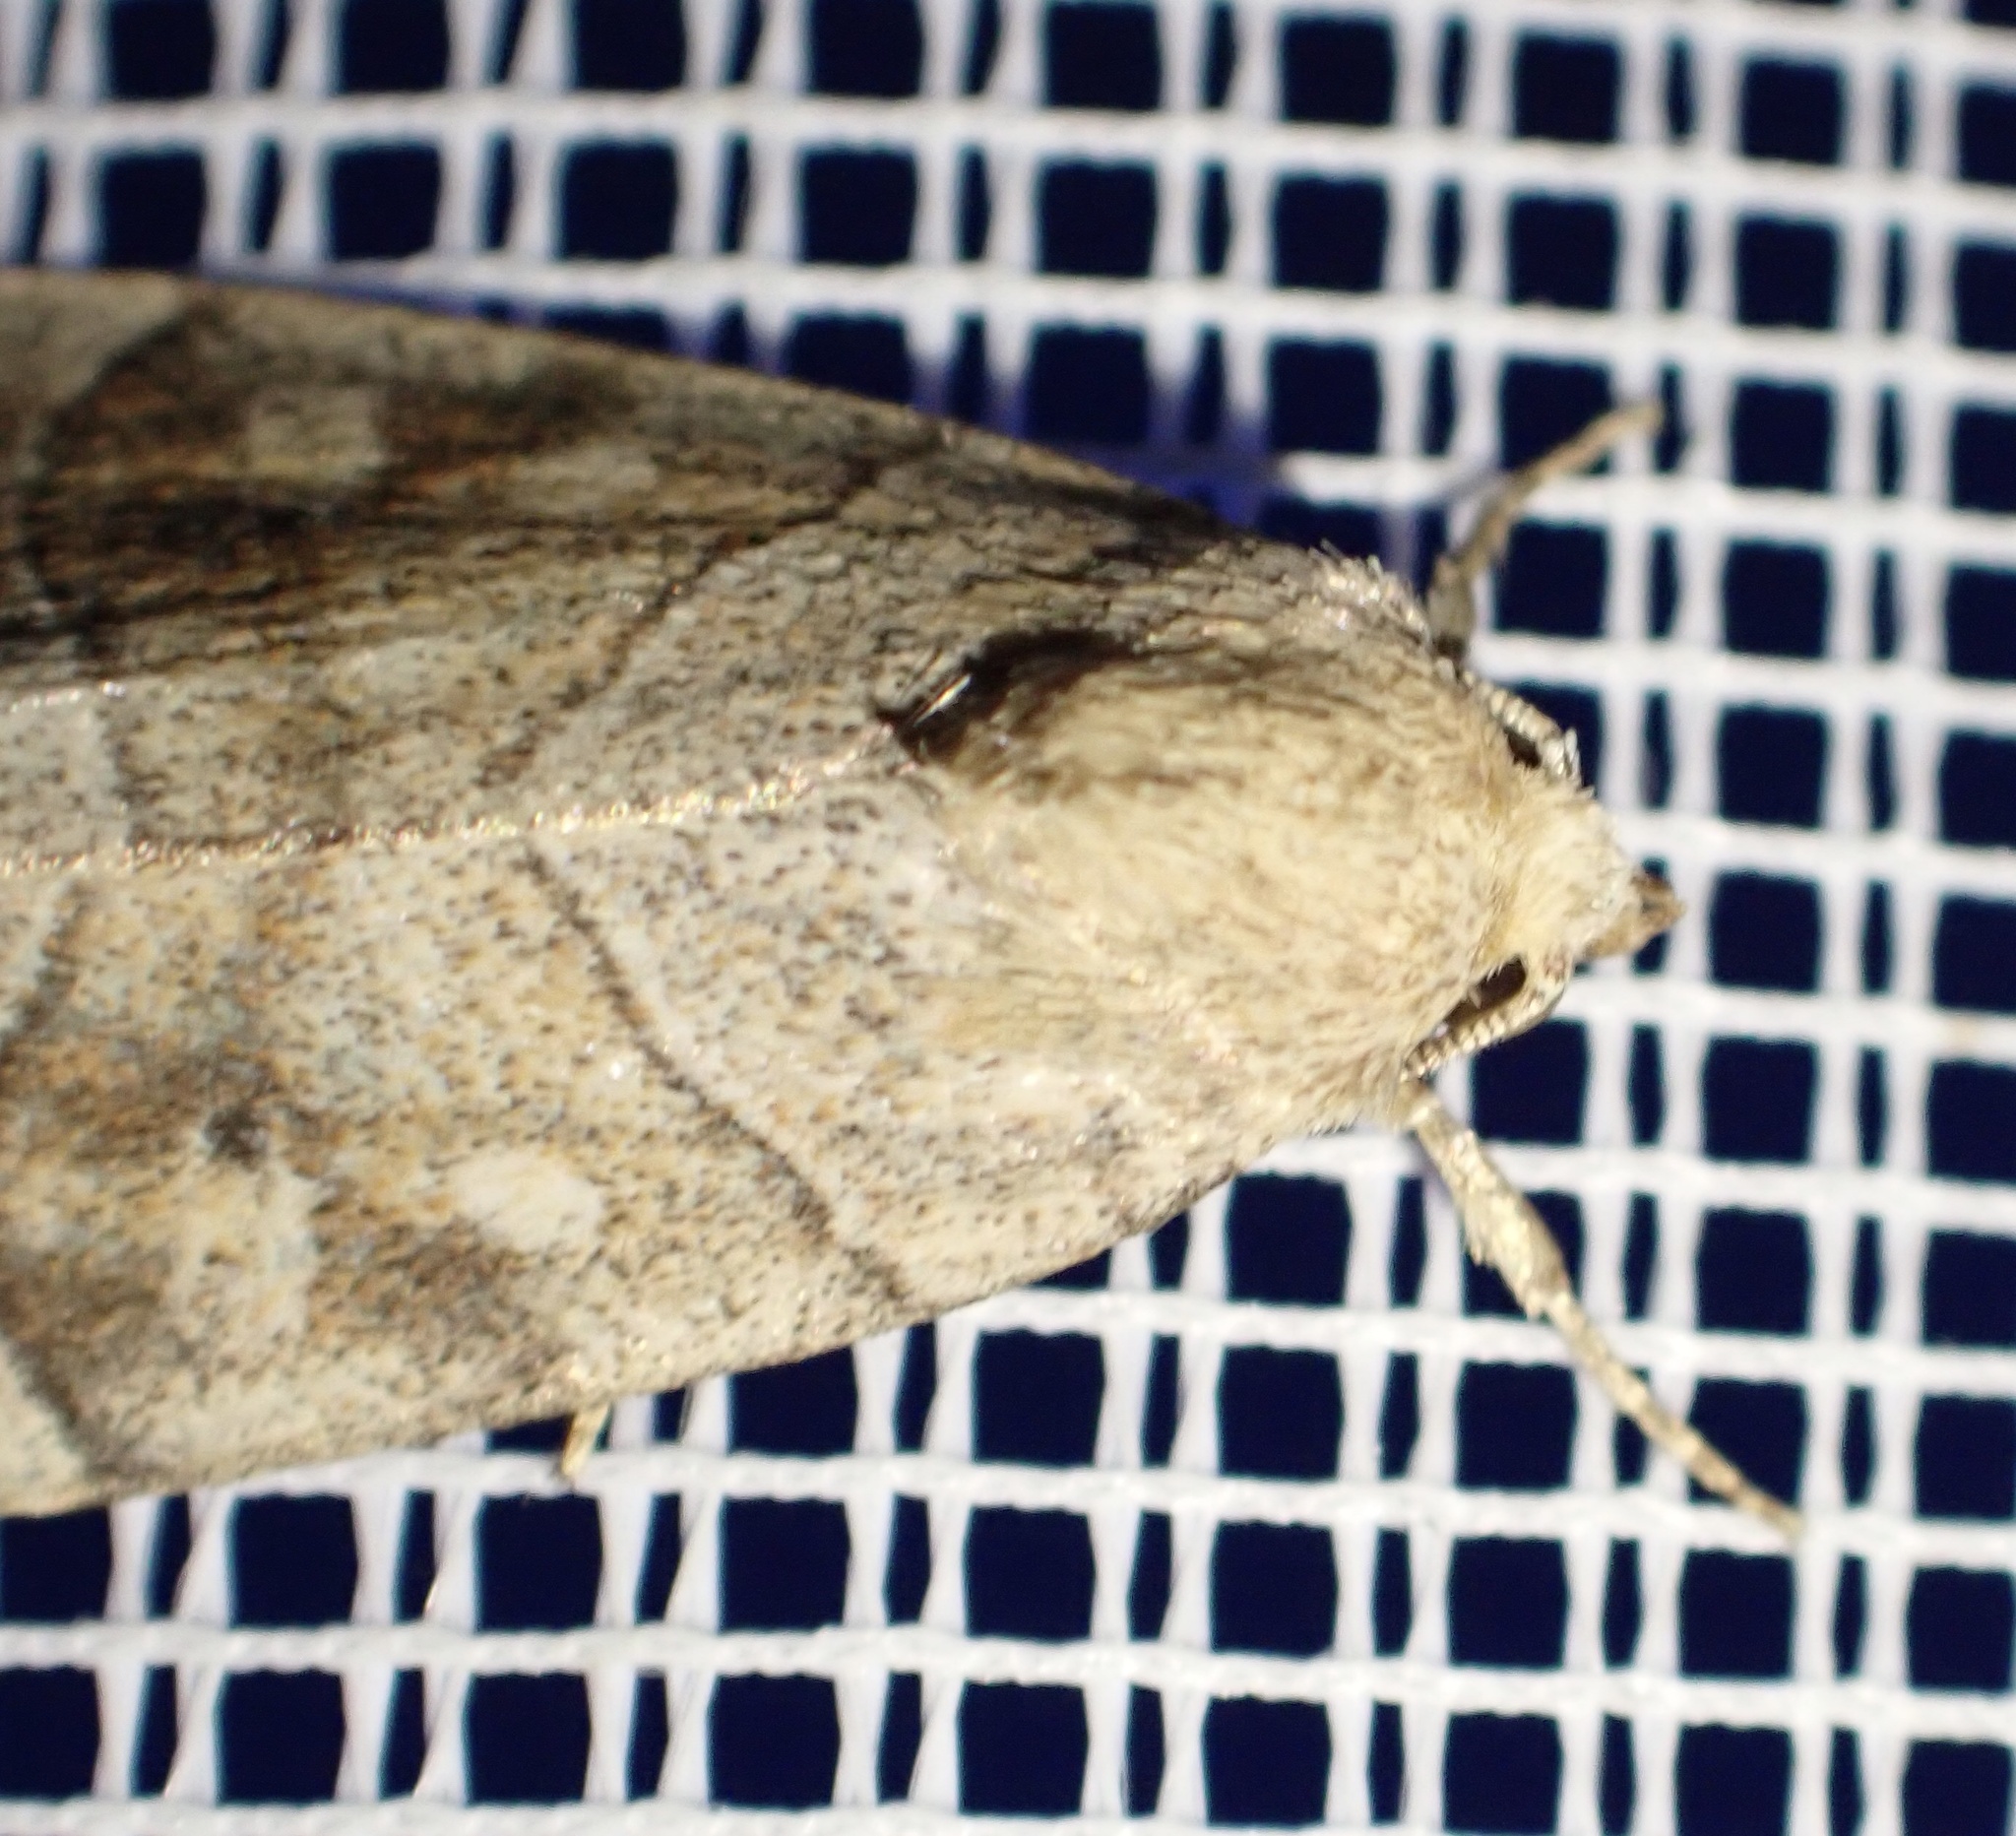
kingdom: Animalia
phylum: Arthropoda
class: Insecta
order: Lepidoptera
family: Noctuidae
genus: Cosmia
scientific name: Cosmia trapezina
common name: Dun-bar
